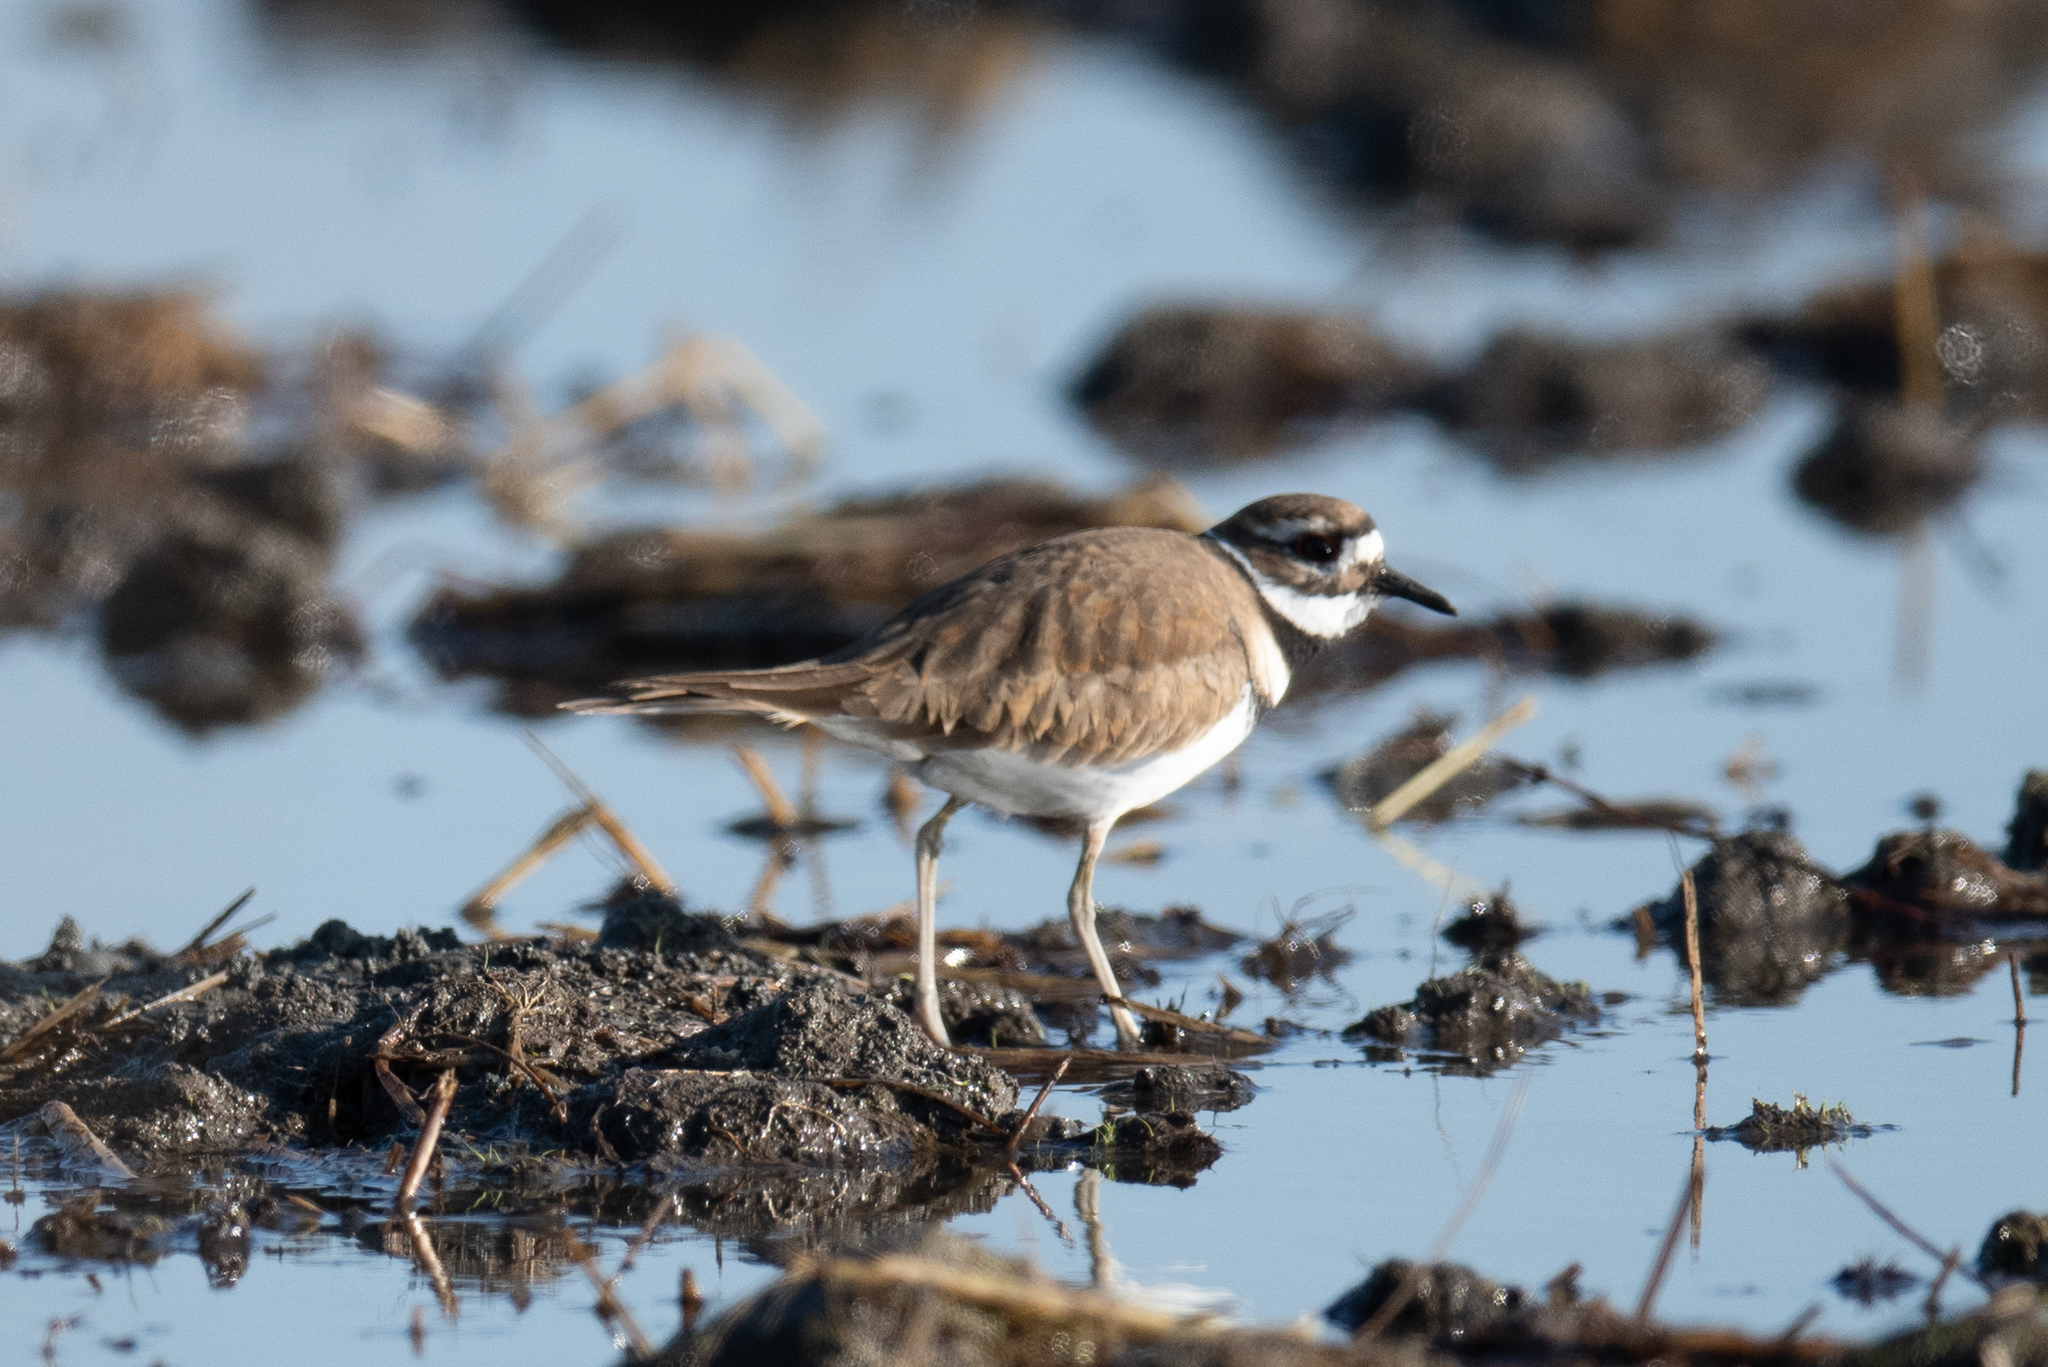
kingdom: Animalia
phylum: Chordata
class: Aves
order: Charadriiformes
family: Charadriidae
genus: Charadrius
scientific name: Charadrius vociferus
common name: Killdeer
